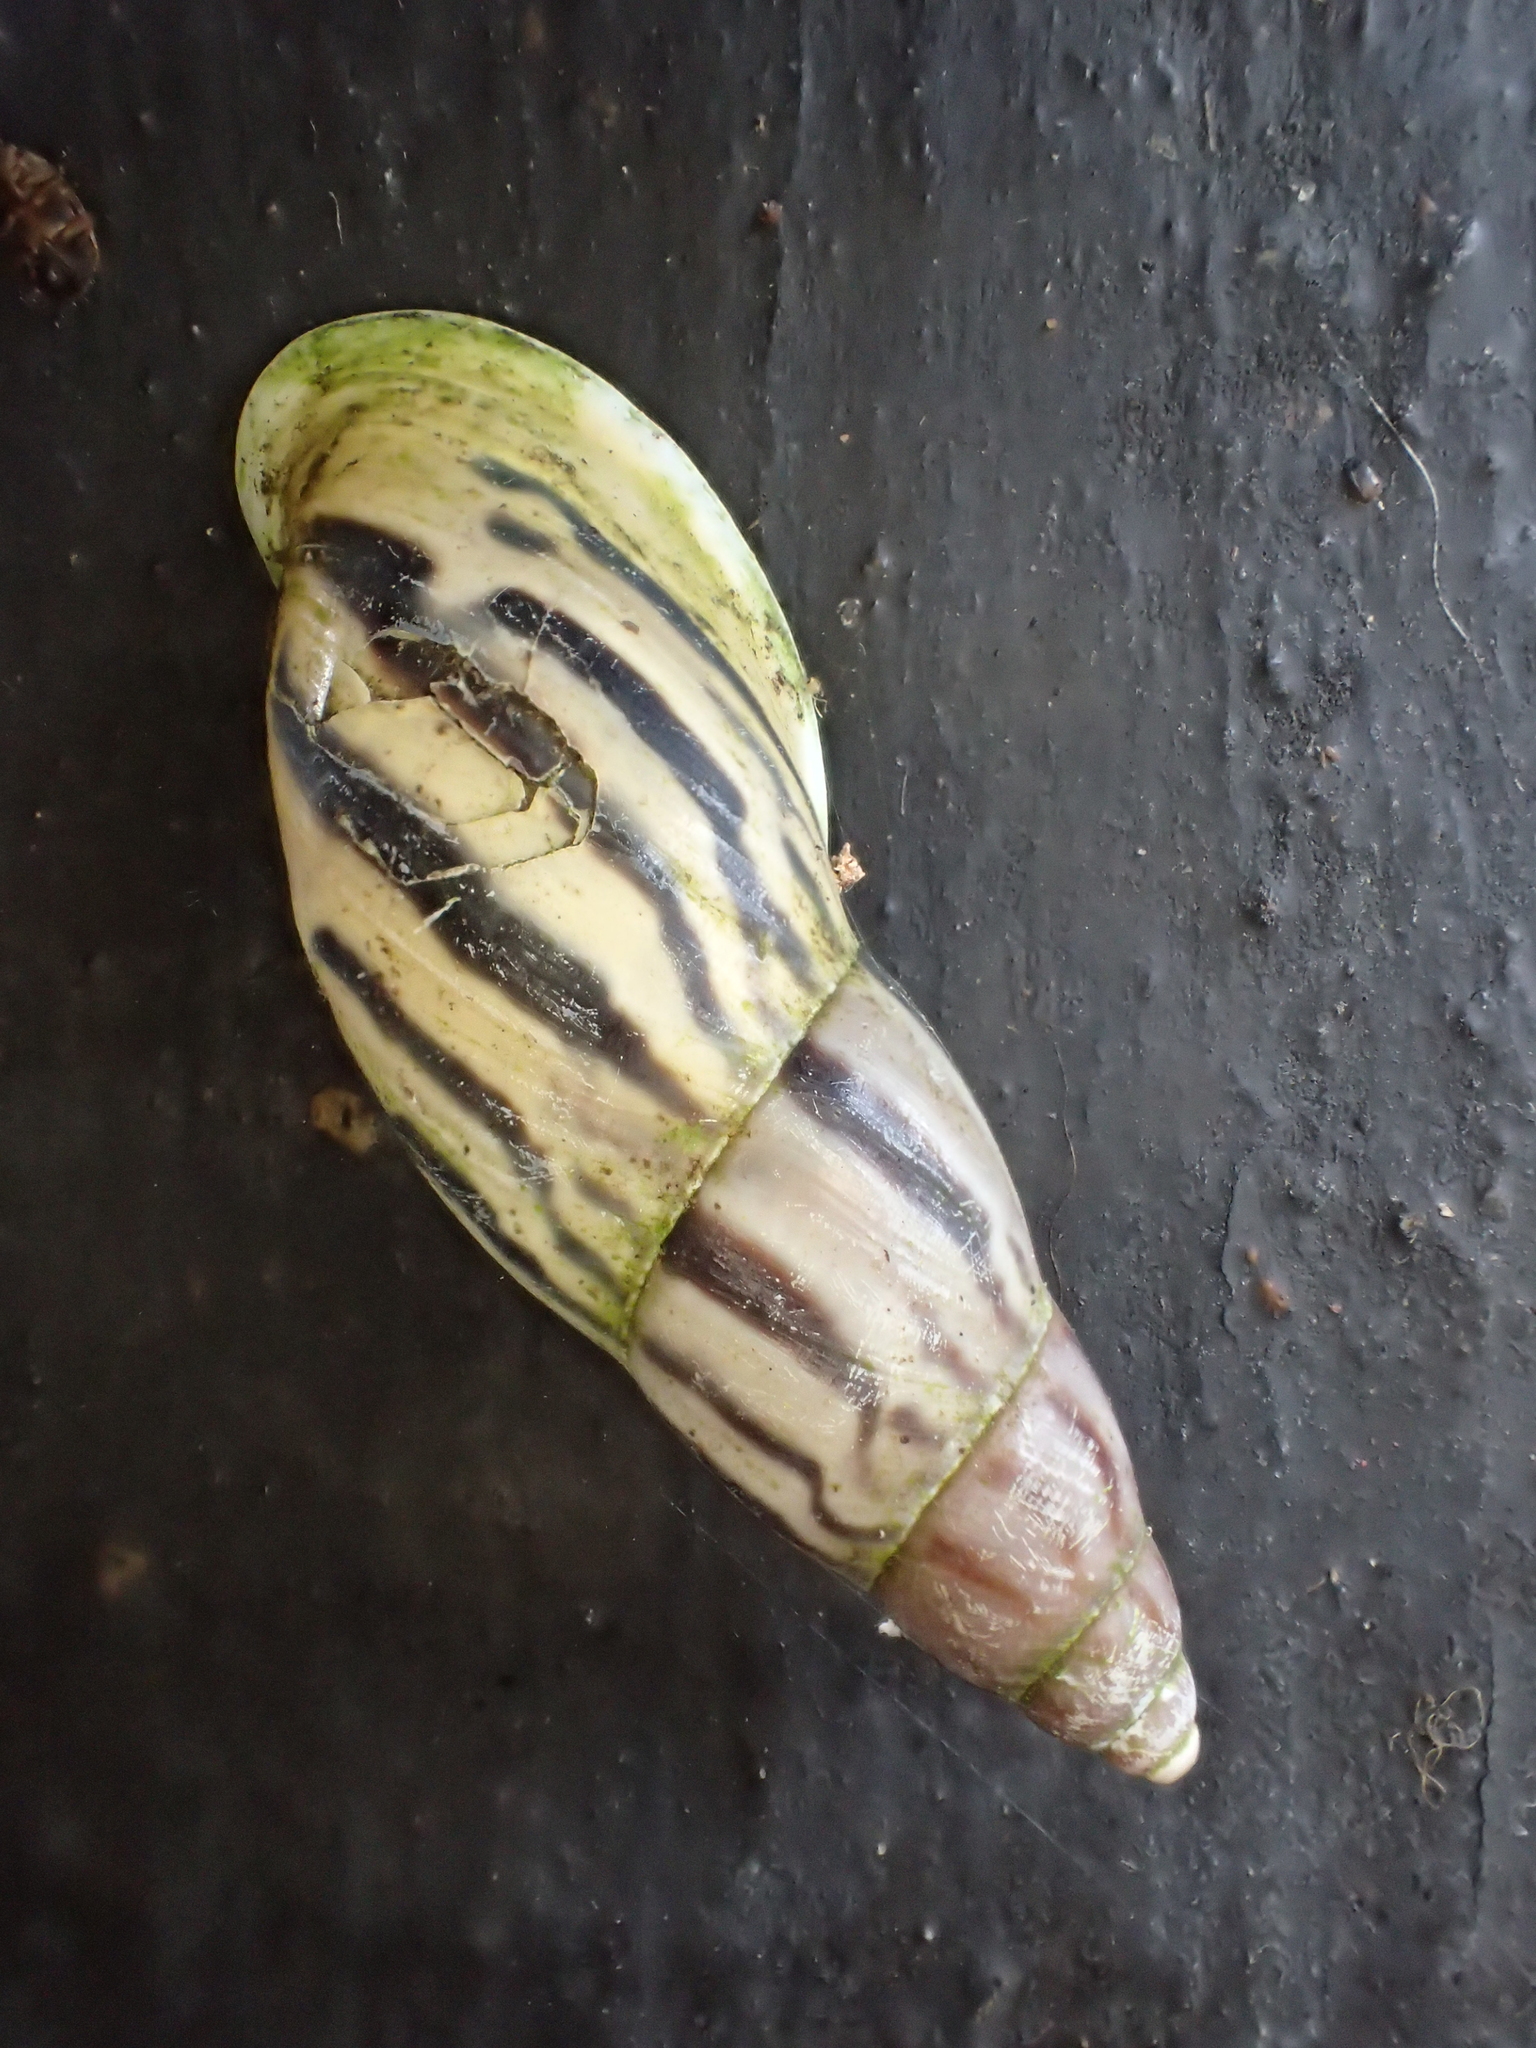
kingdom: Animalia
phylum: Mollusca
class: Gastropoda
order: Stylommatophora
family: Bulimulidae
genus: Drymaeus
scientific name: Drymaeus petasites
